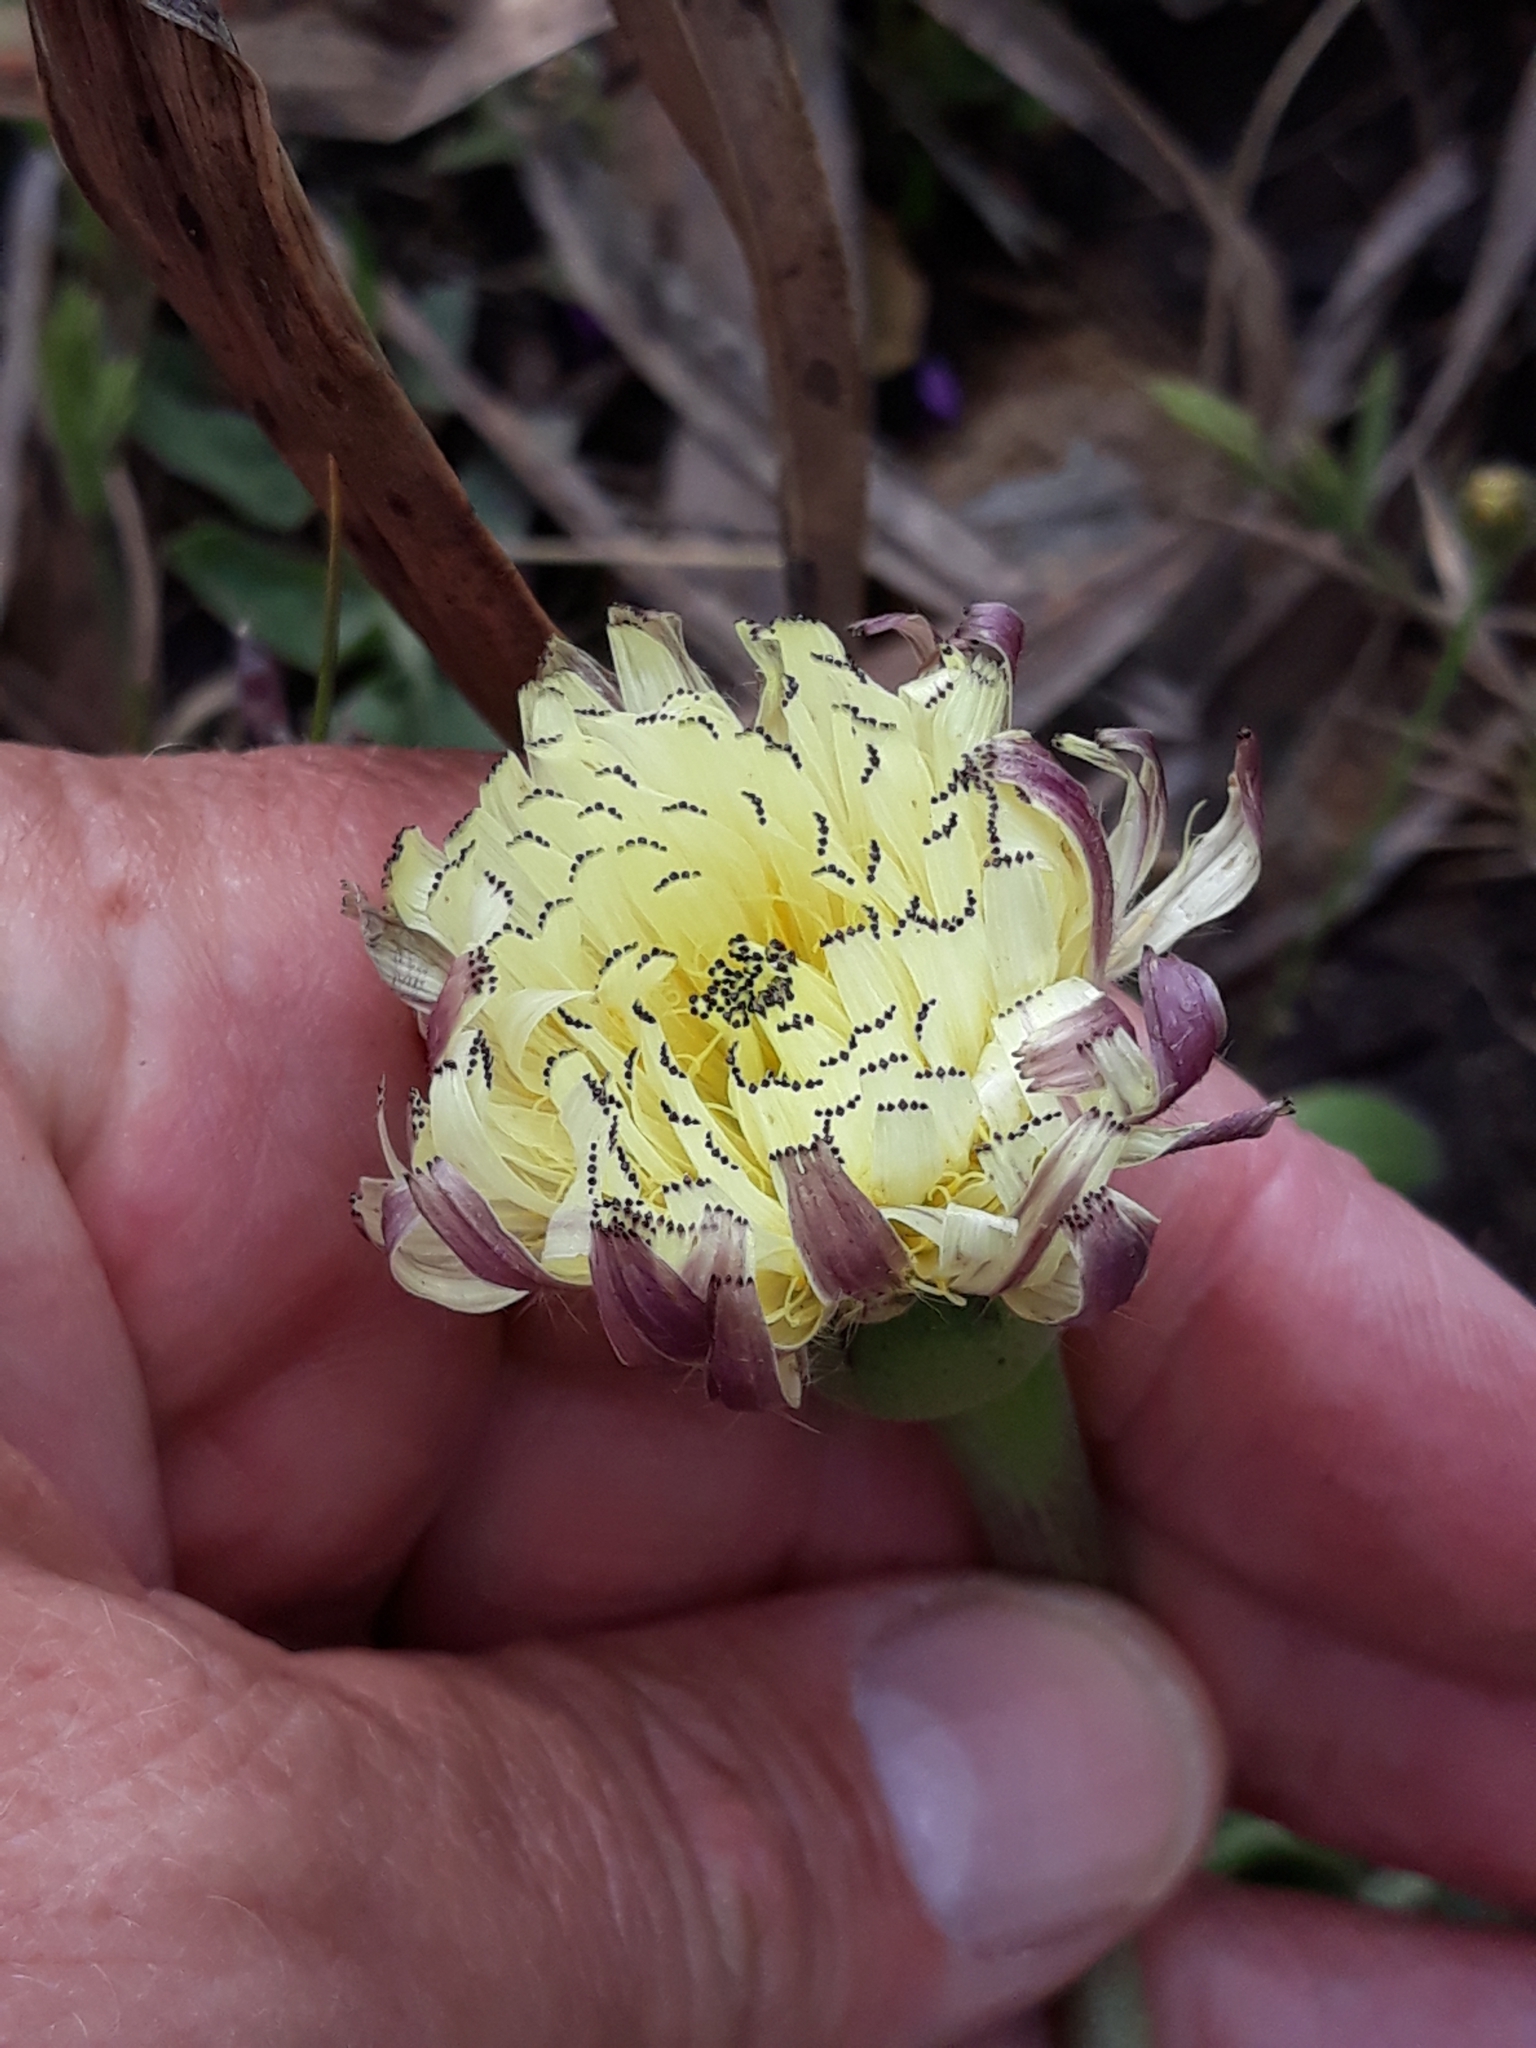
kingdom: Plantae
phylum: Tracheophyta
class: Magnoliopsida
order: Asterales
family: Asteraceae
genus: Urospermum
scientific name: Urospermum dalechampii
